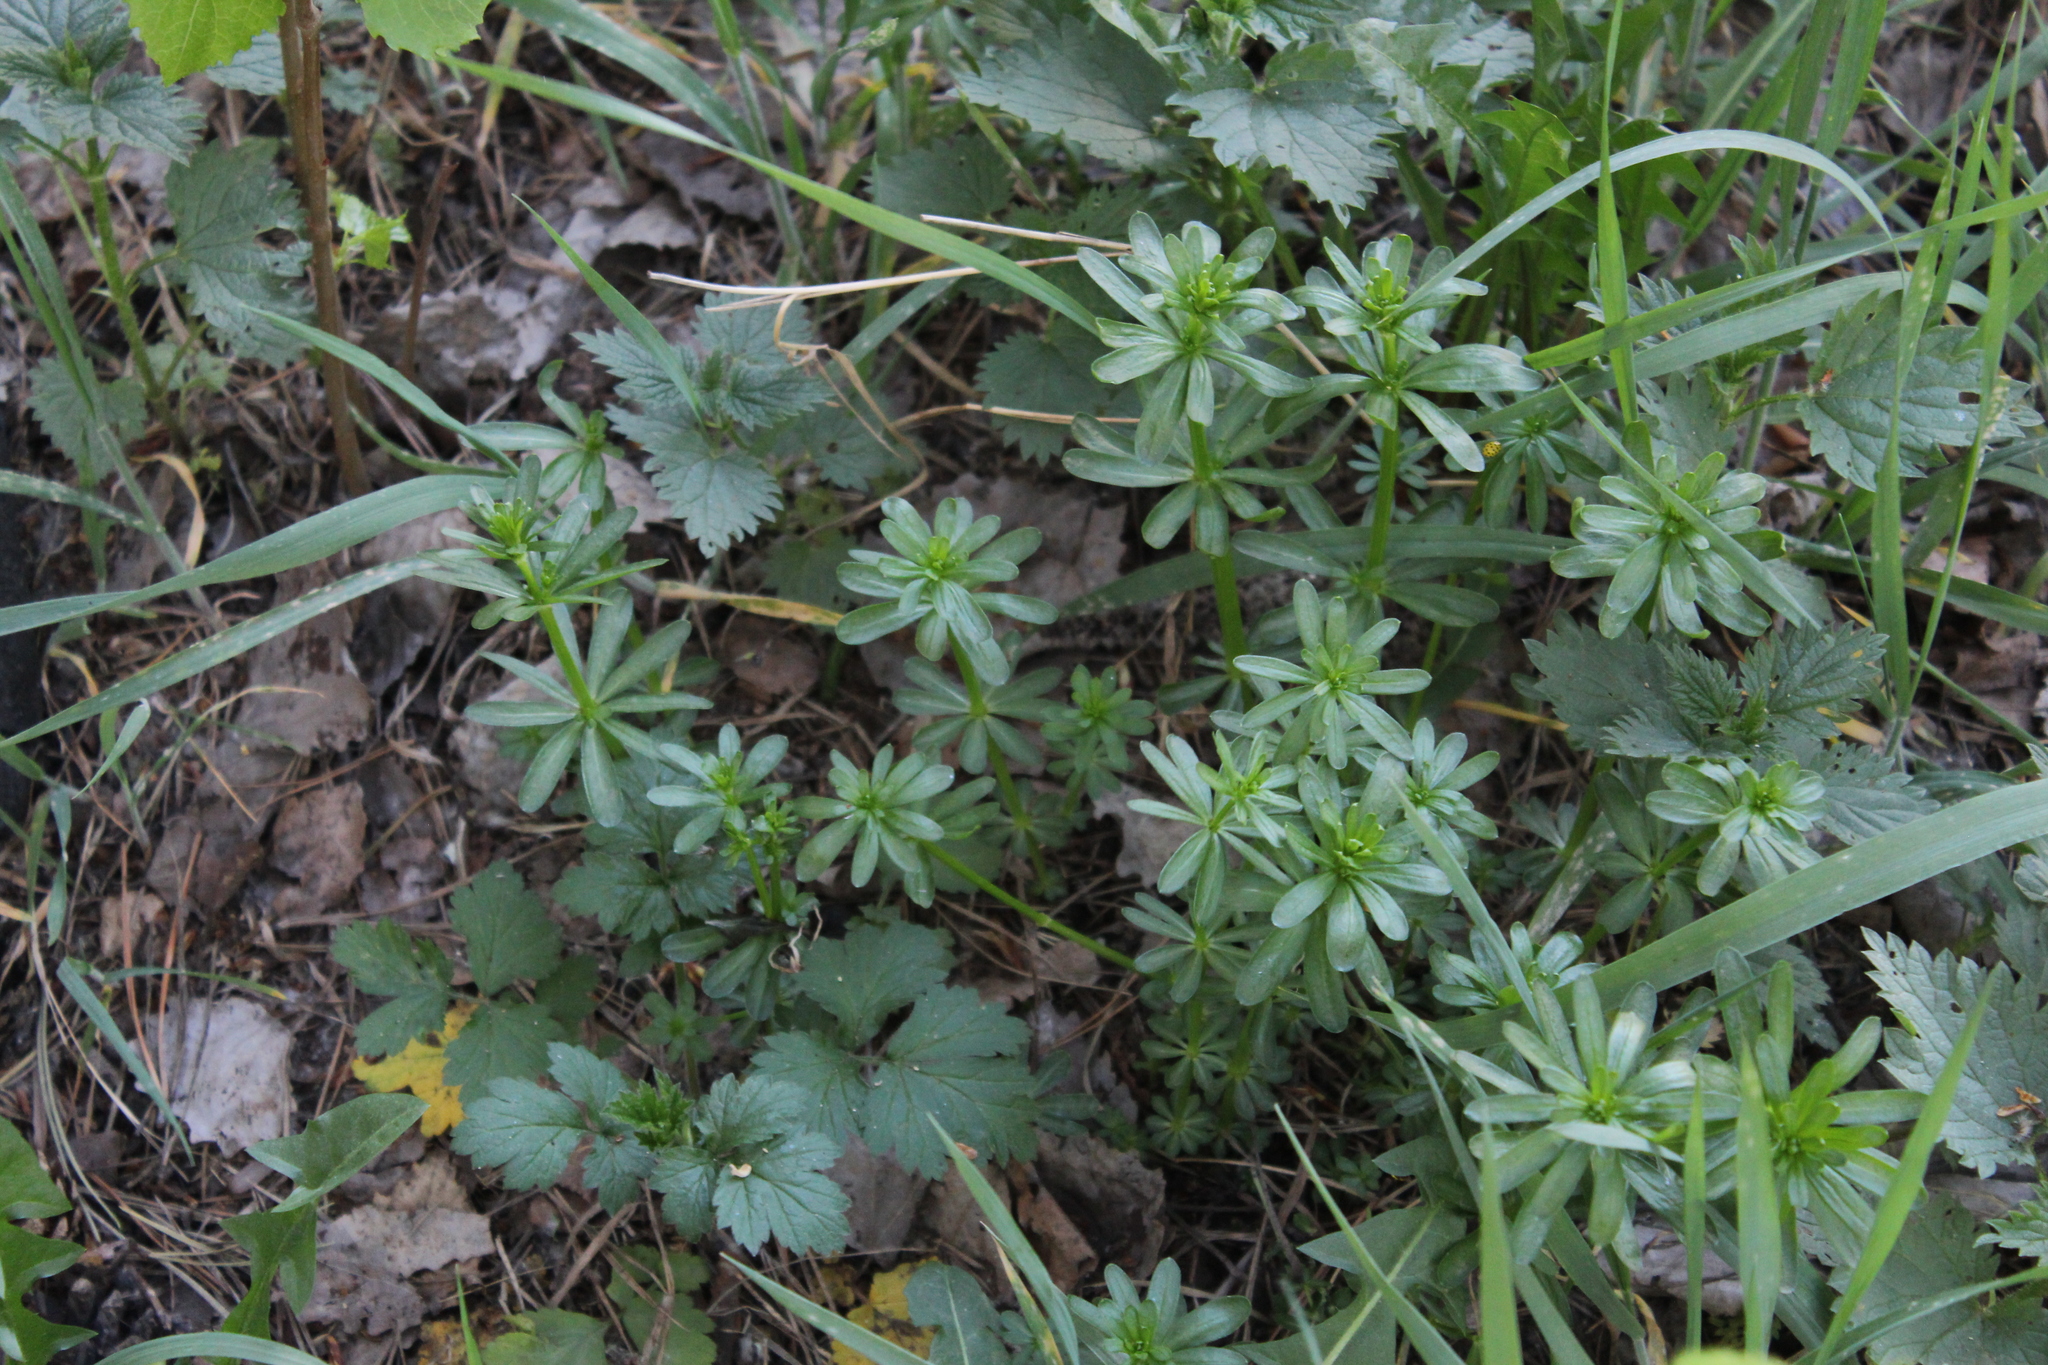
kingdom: Plantae
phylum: Tracheophyta
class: Magnoliopsida
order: Gentianales
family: Rubiaceae
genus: Galium
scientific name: Galium mollugo
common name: Hedge bedstraw
